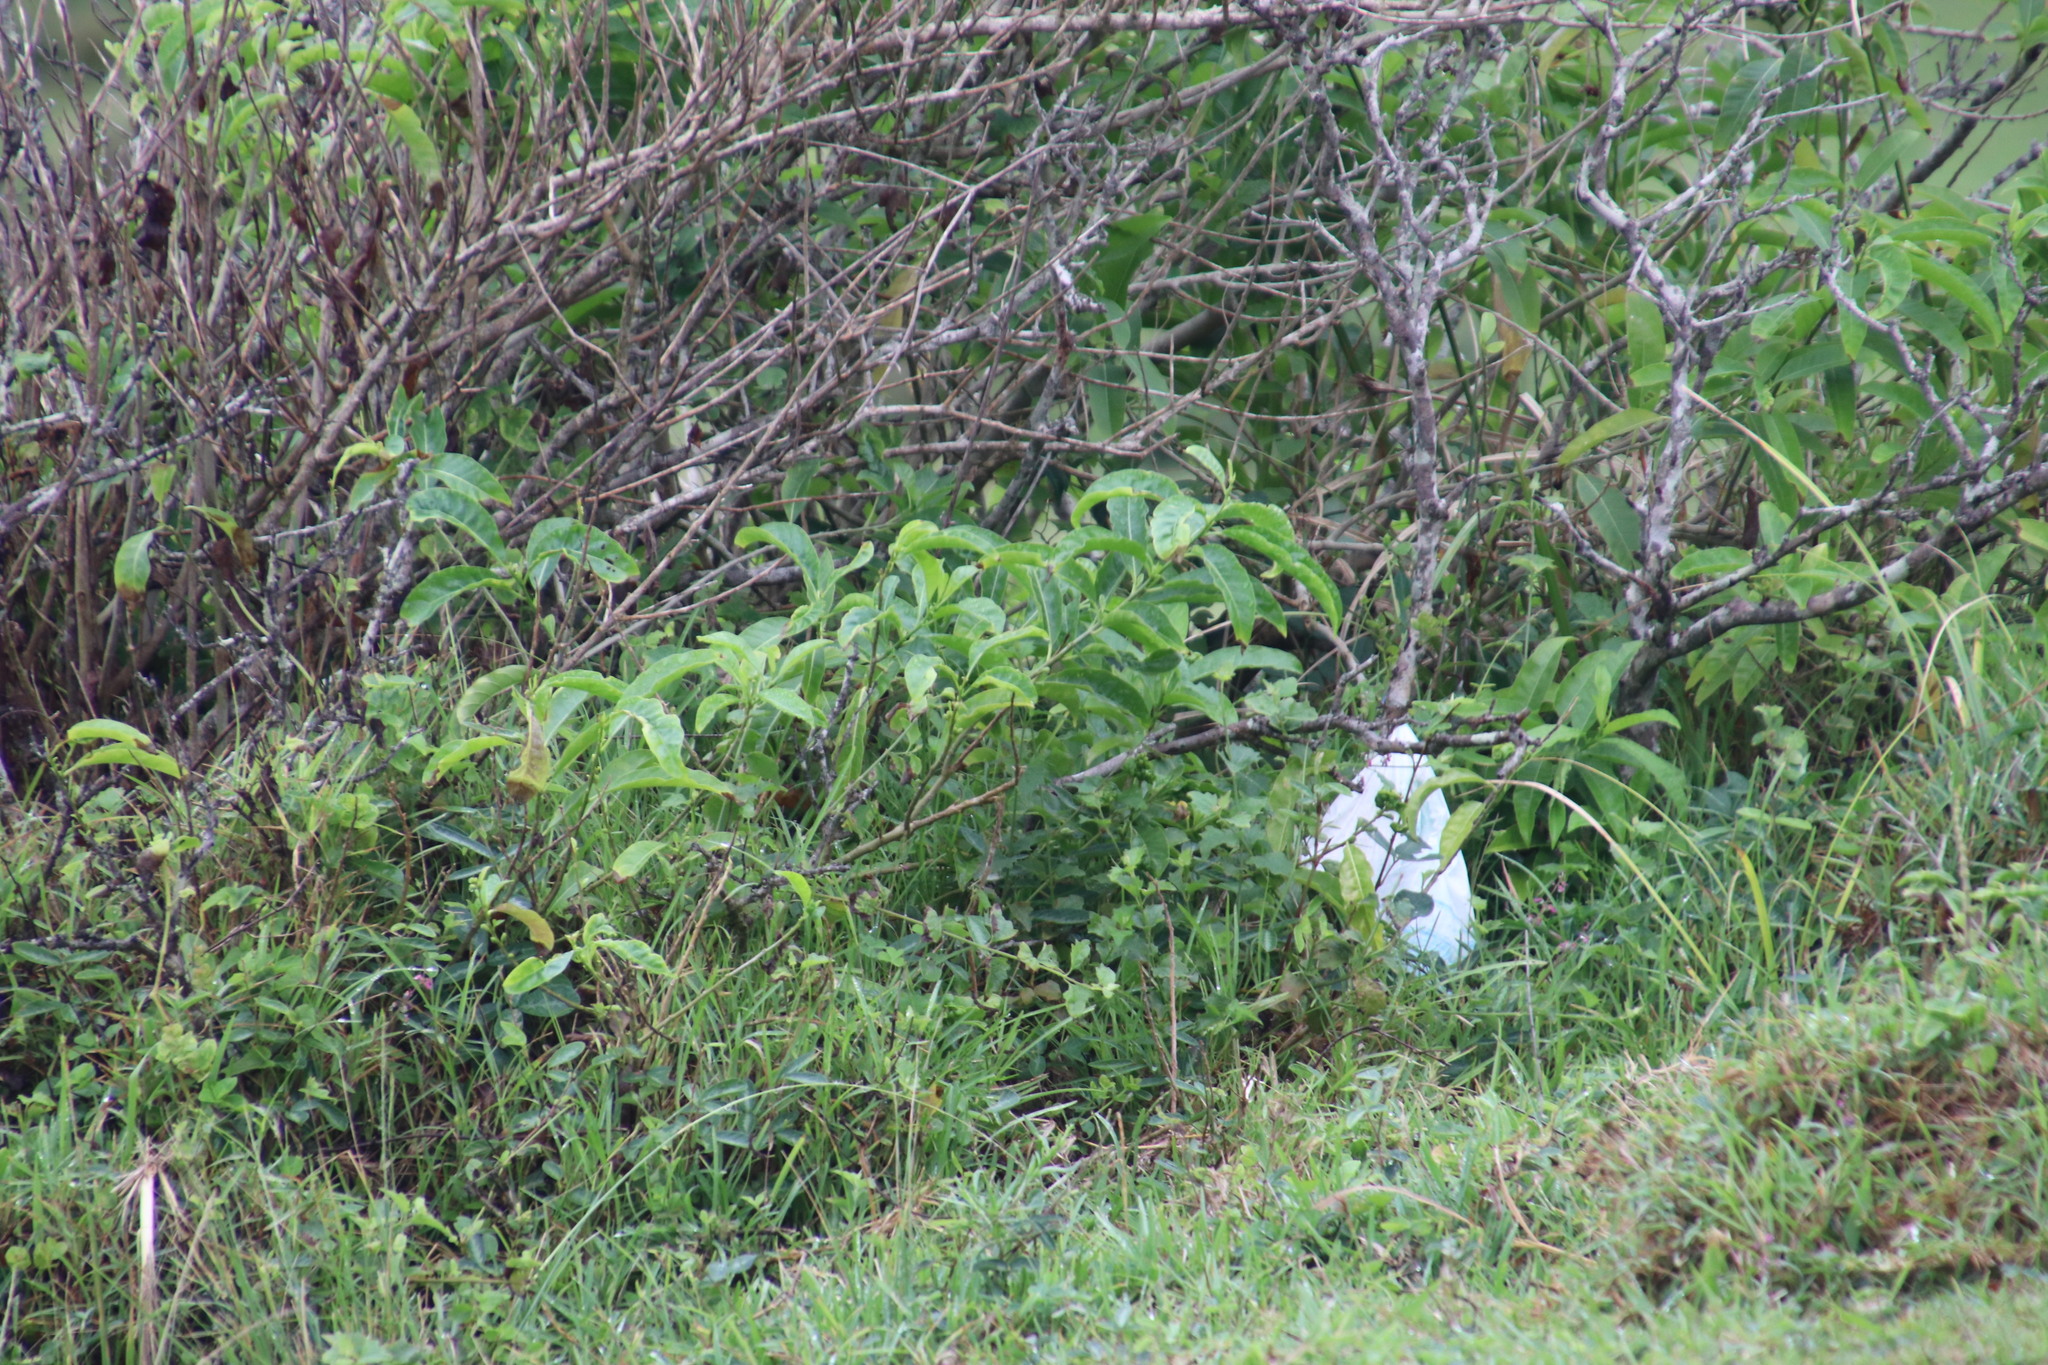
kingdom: Plantae
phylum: Tracheophyta
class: Magnoliopsida
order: Solanales
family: Solanaceae
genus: Cestrum
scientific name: Cestrum laevigatum
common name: Inkberry
